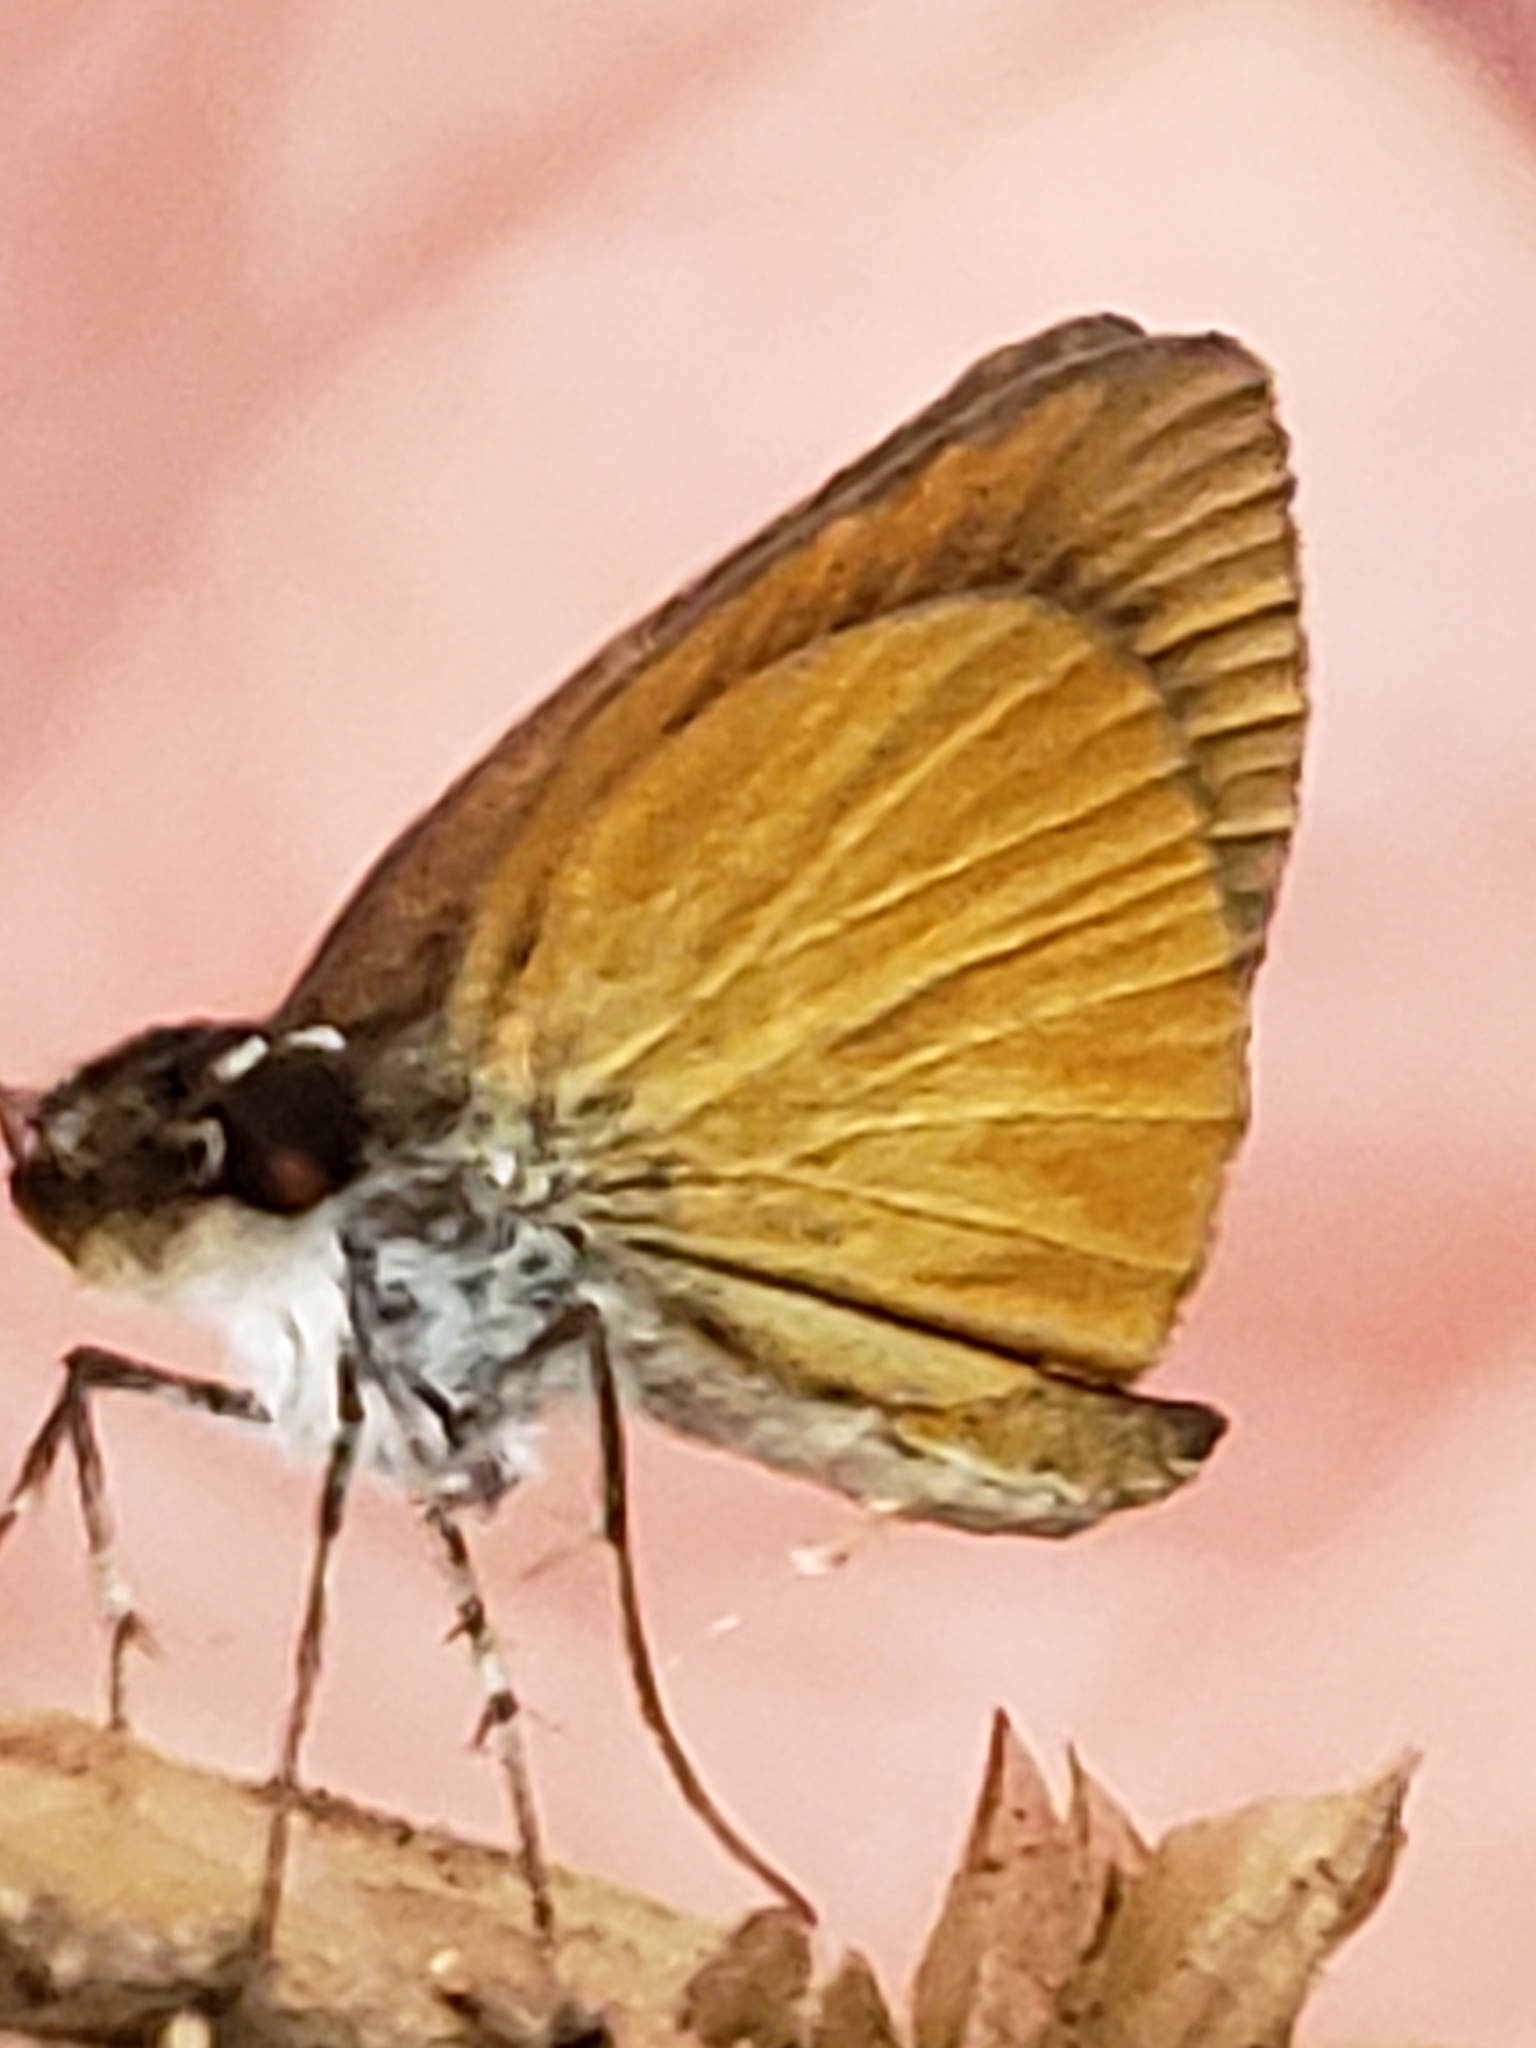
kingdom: Animalia
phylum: Arthropoda
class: Insecta
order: Lepidoptera
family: Hesperiidae
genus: Ancyloxypha
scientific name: Ancyloxypha numitor
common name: Least skipper
